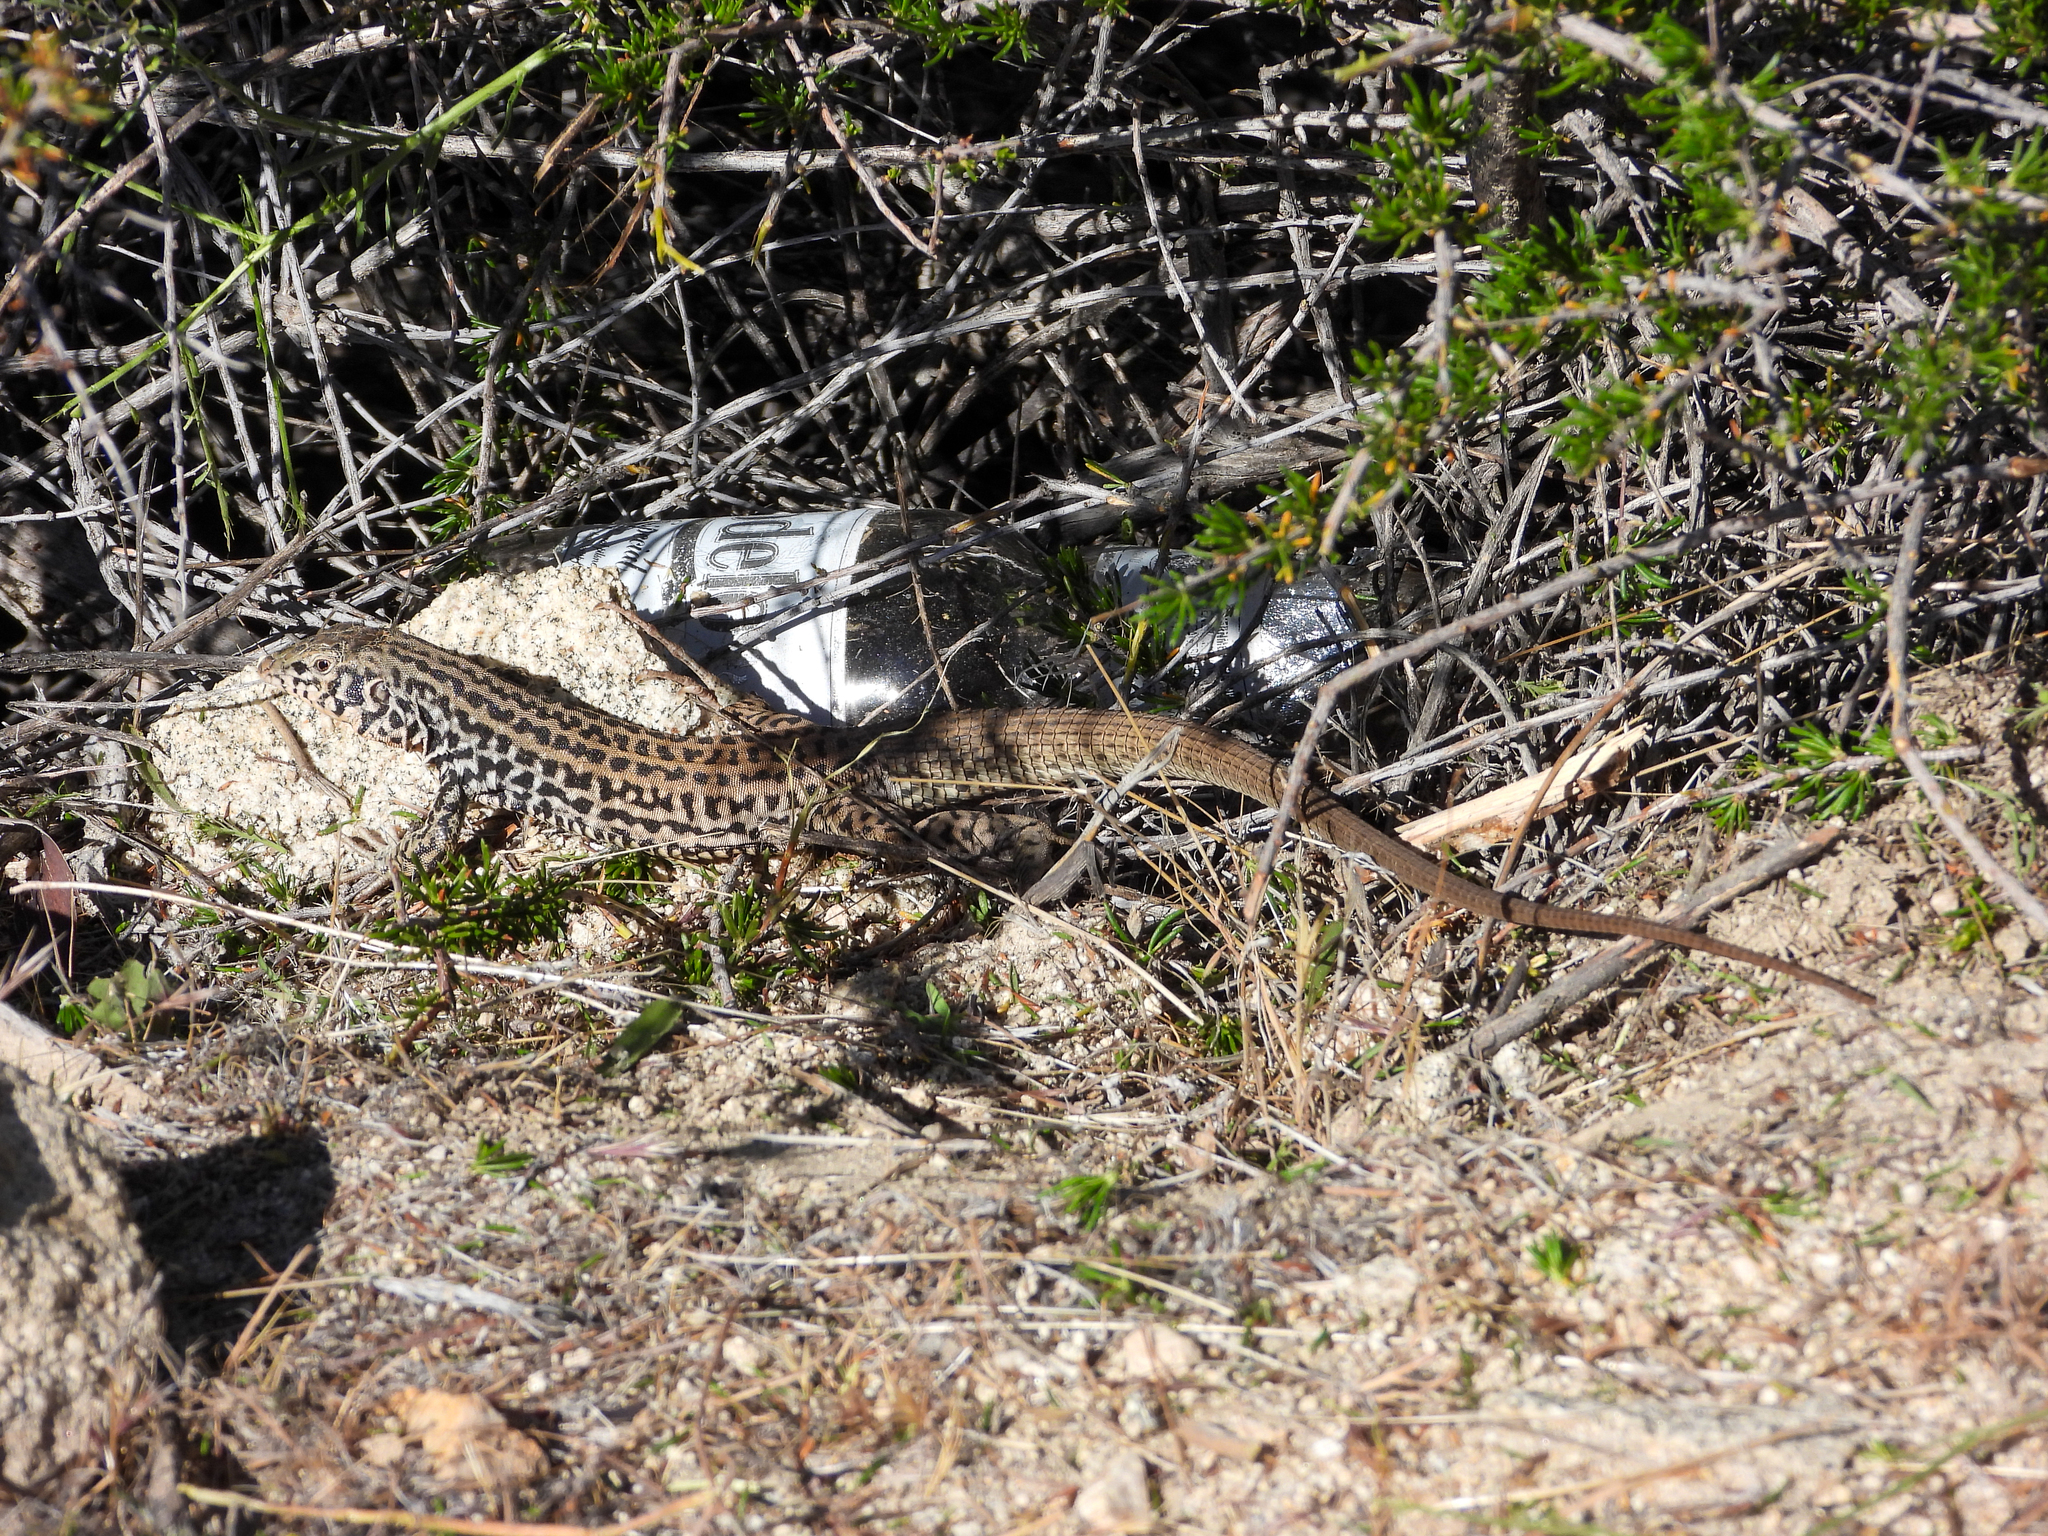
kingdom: Animalia
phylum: Chordata
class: Squamata
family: Teiidae
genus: Aspidoscelis
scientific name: Aspidoscelis tigris
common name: Tiger whiptail
